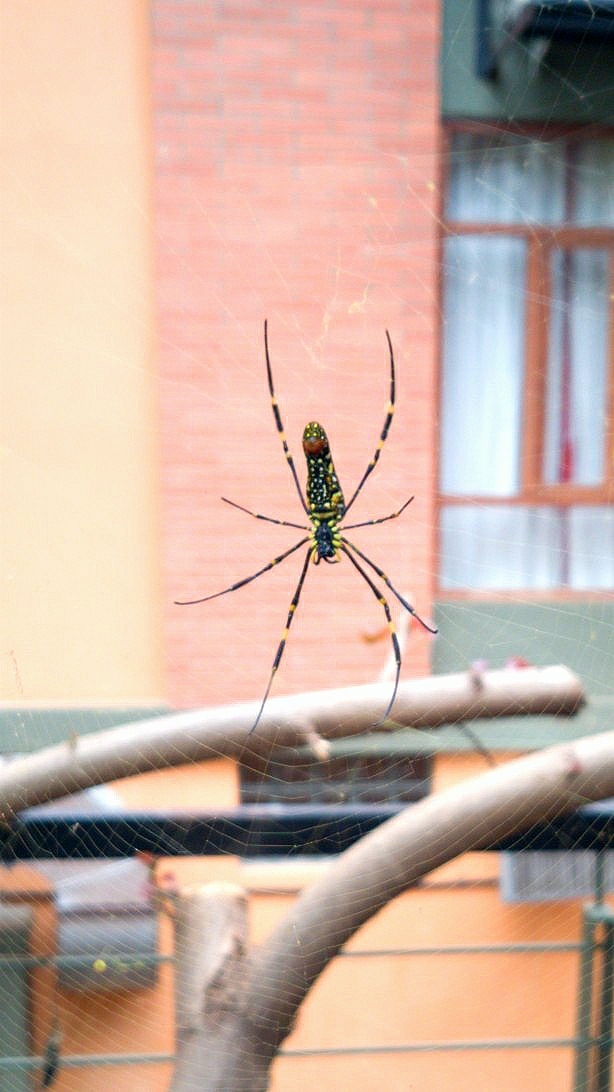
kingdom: Animalia
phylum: Arthropoda
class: Arachnida
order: Araneae
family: Araneidae
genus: Nephila
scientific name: Nephila pilipes
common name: Giant golden orb weaver
